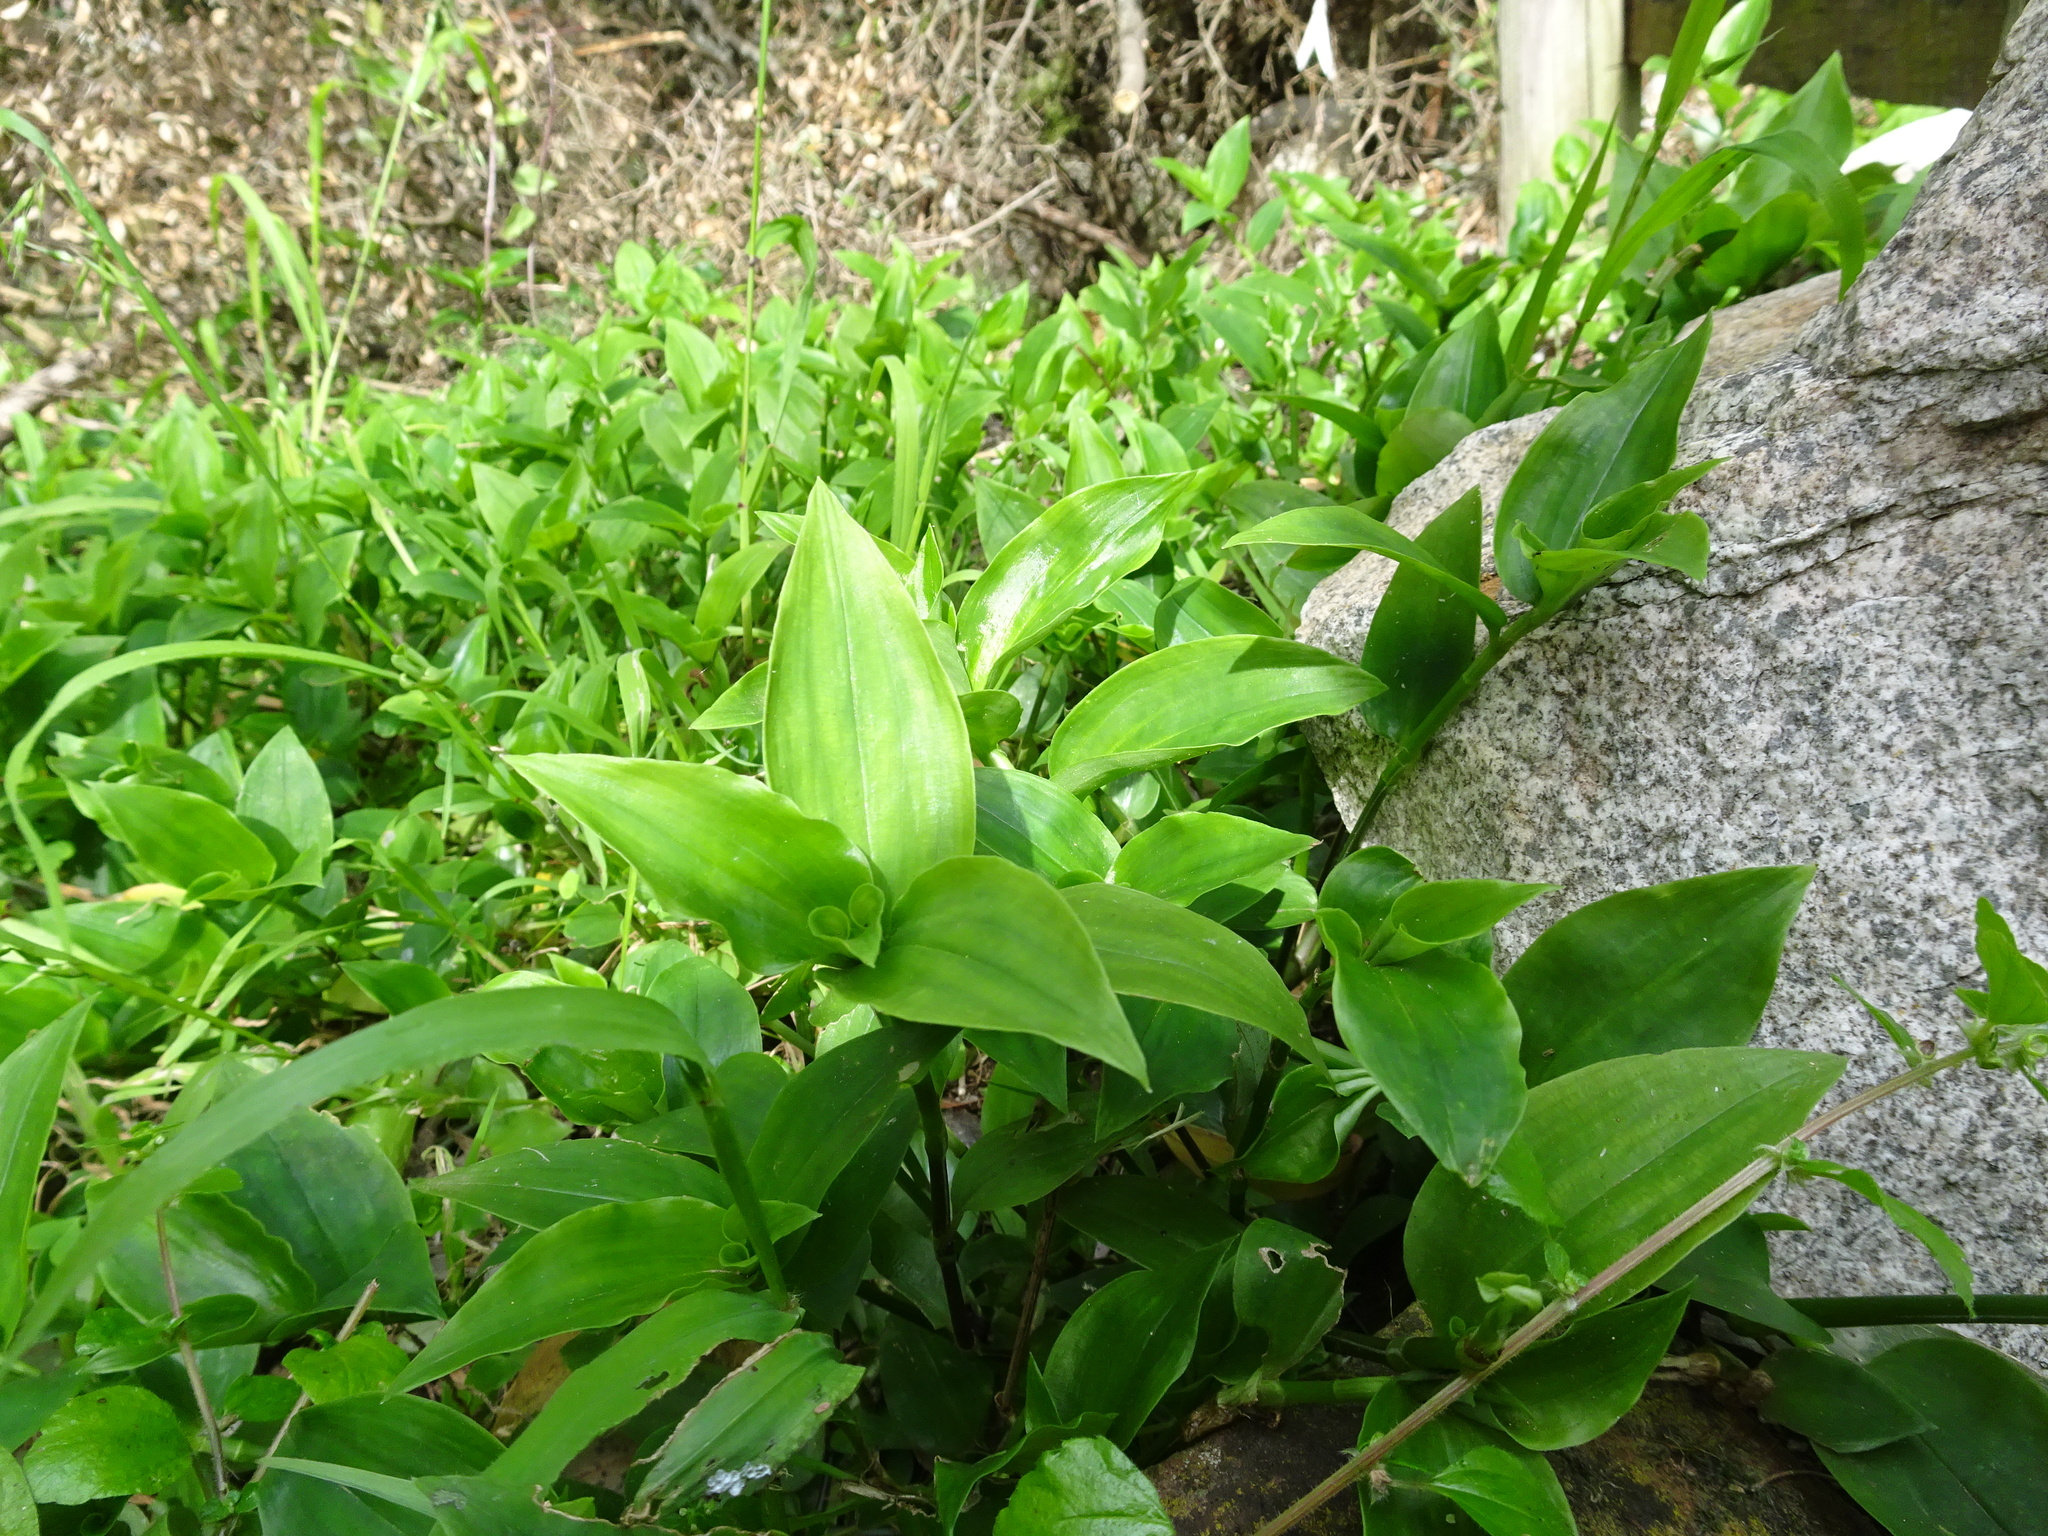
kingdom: Plantae
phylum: Tracheophyta
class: Liliopsida
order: Commelinales
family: Commelinaceae
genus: Tradescantia
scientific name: Tradescantia fluminensis
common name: Wandering-jew
